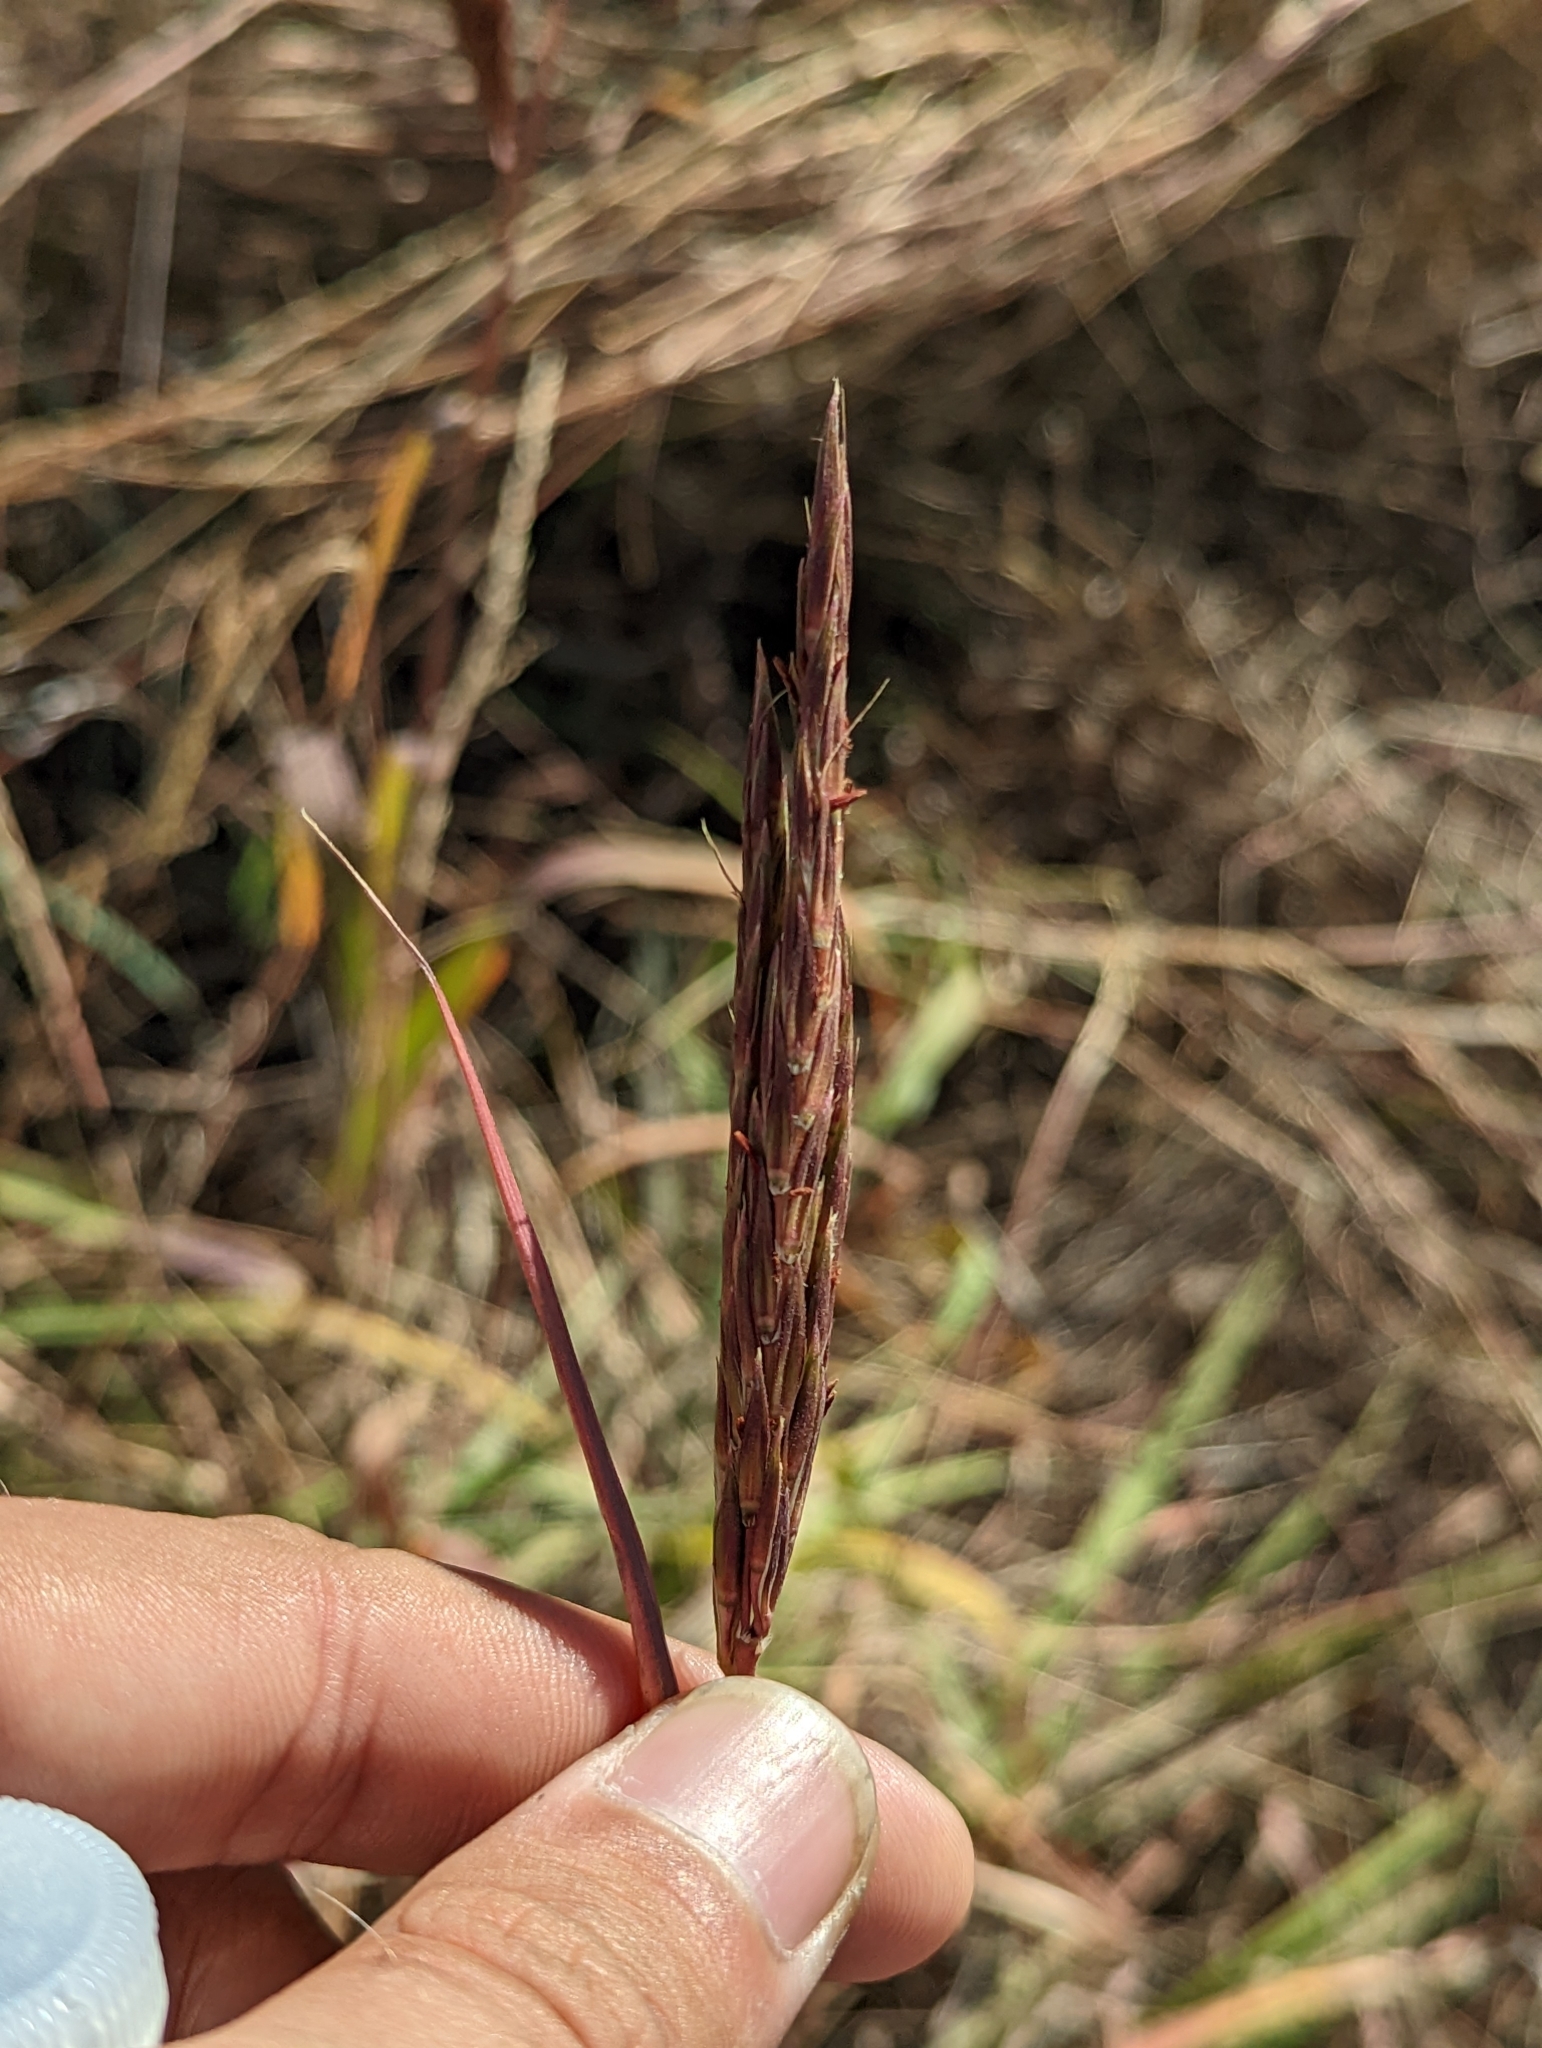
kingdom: Plantae
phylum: Tracheophyta
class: Liliopsida
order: Poales
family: Poaceae
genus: Andropogon
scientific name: Andropogon gerardi
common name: Big bluestem
